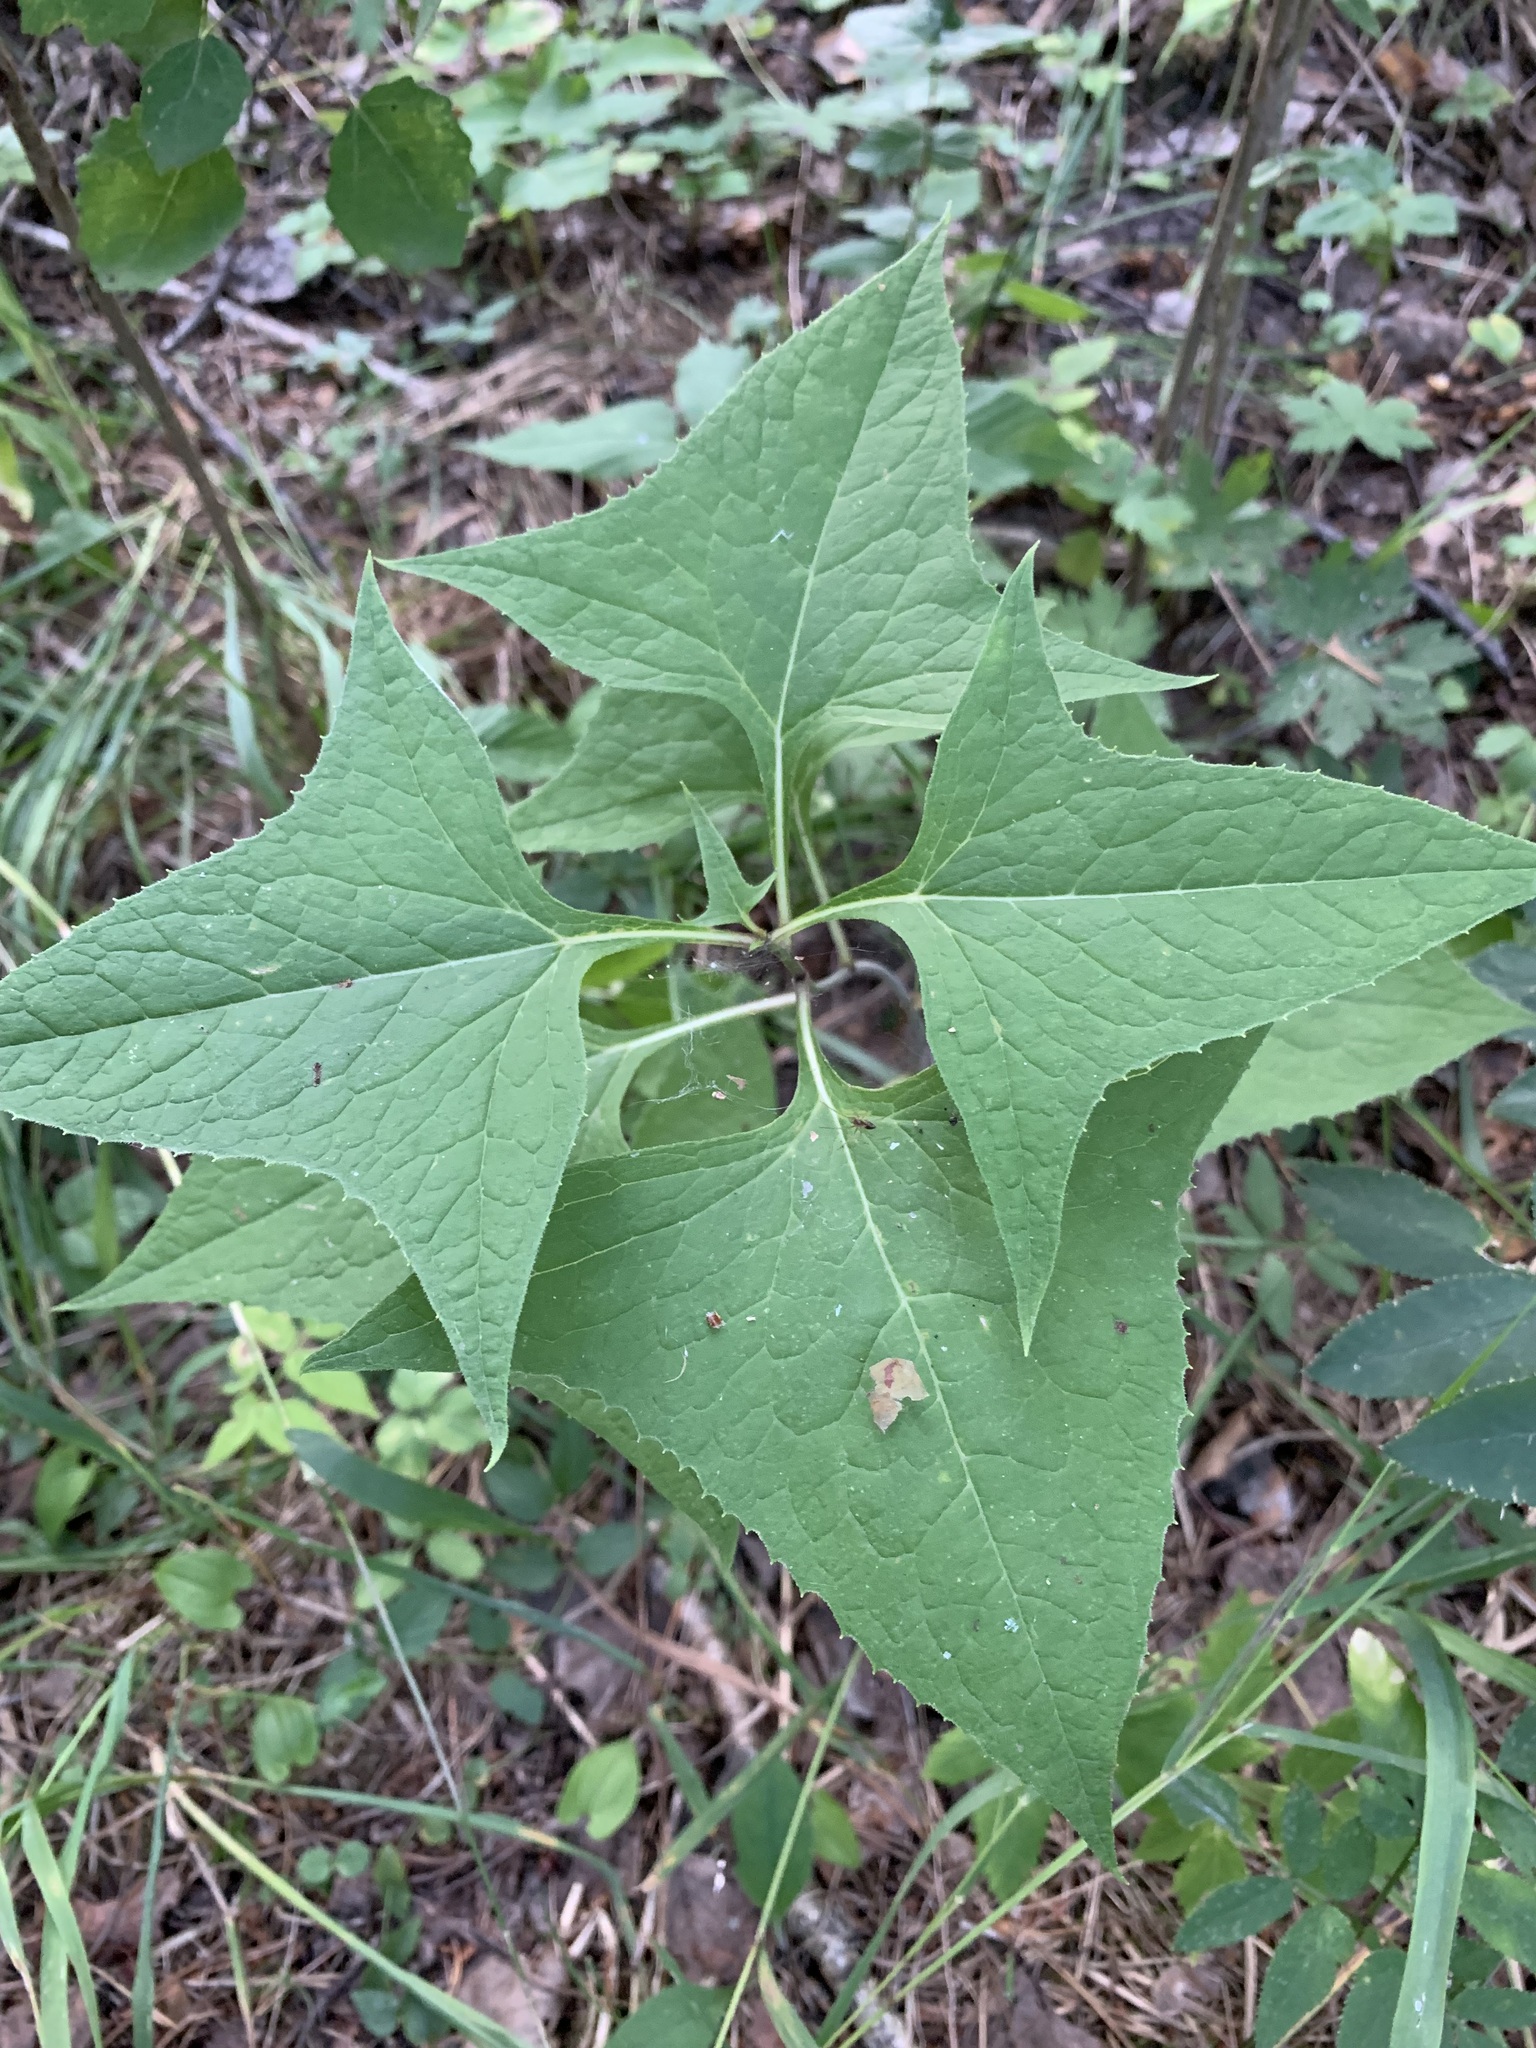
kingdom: Plantae
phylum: Tracheophyta
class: Magnoliopsida
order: Asterales
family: Asteraceae
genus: Parasenecio
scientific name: Parasenecio hastatus
